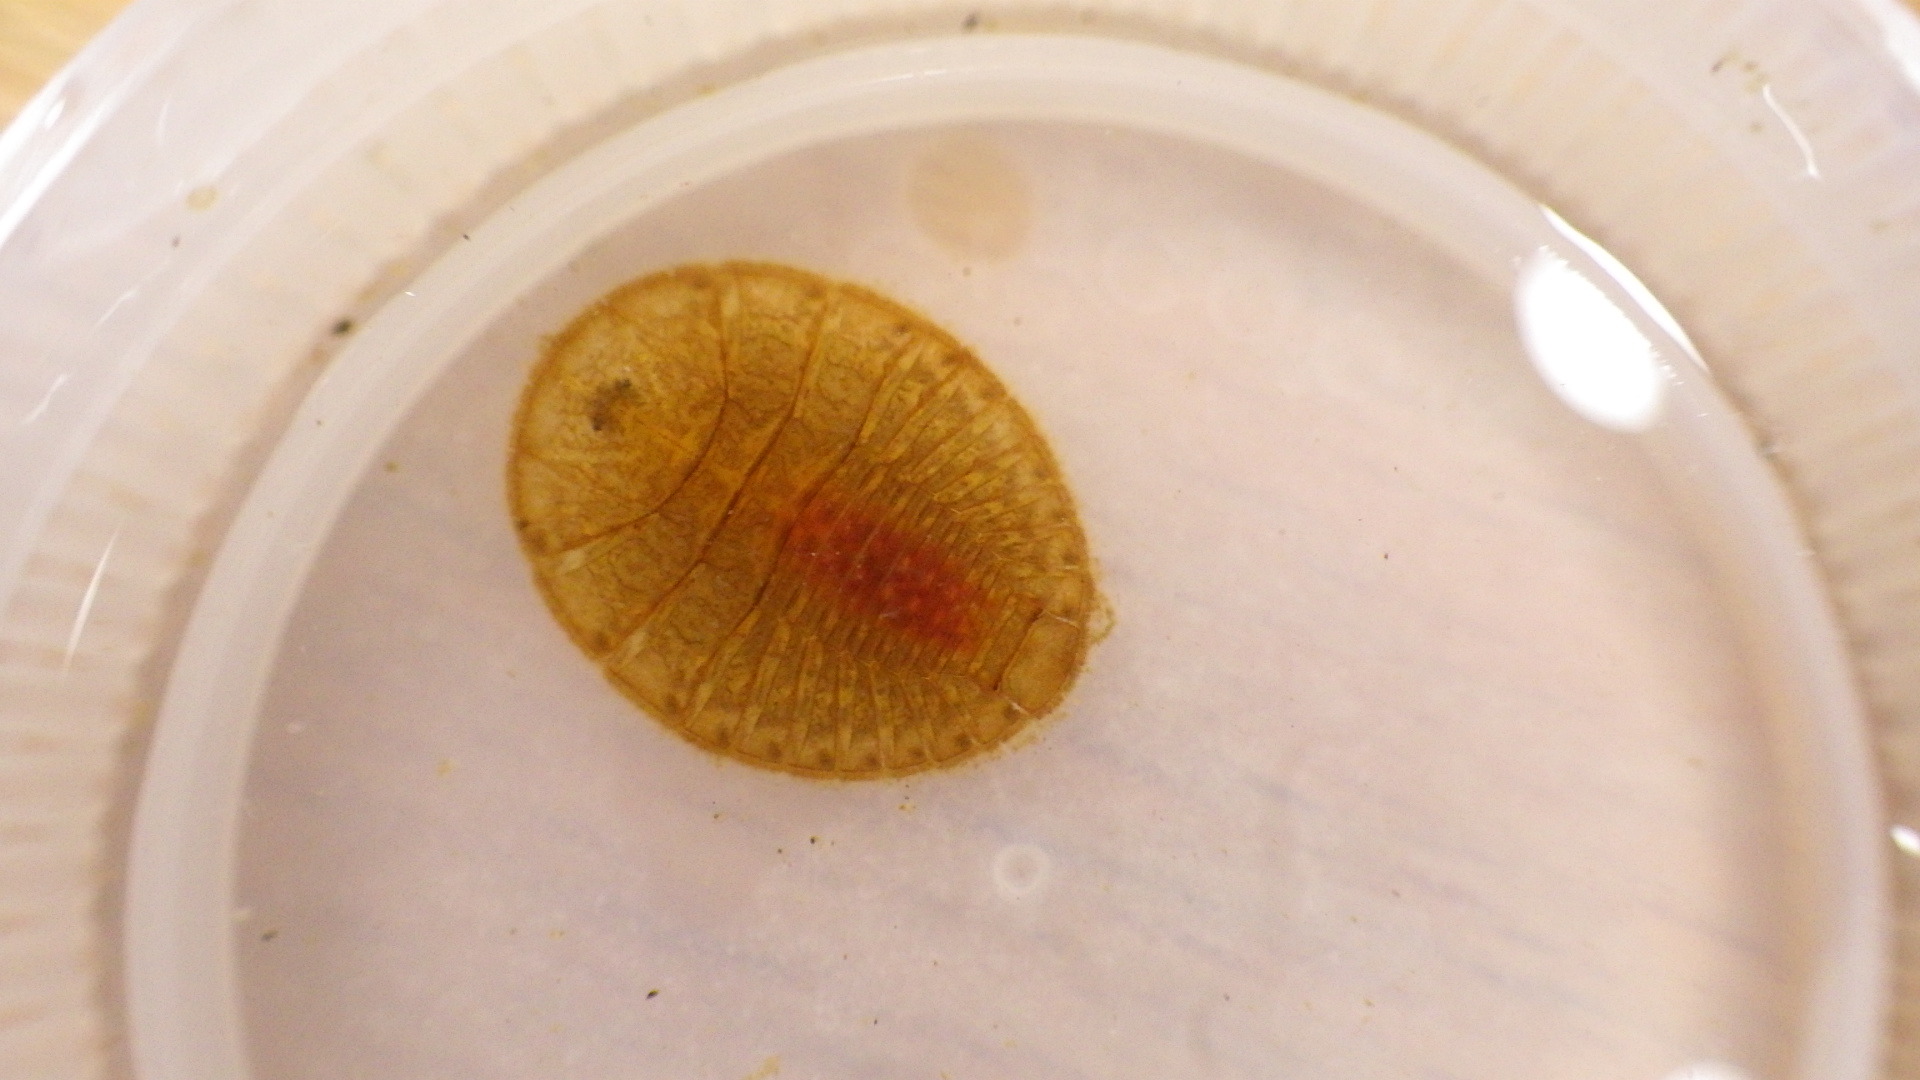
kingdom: Animalia
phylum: Arthropoda
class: Insecta
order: Coleoptera
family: Psephenidae
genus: Psephenus
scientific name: Psephenus herricki
